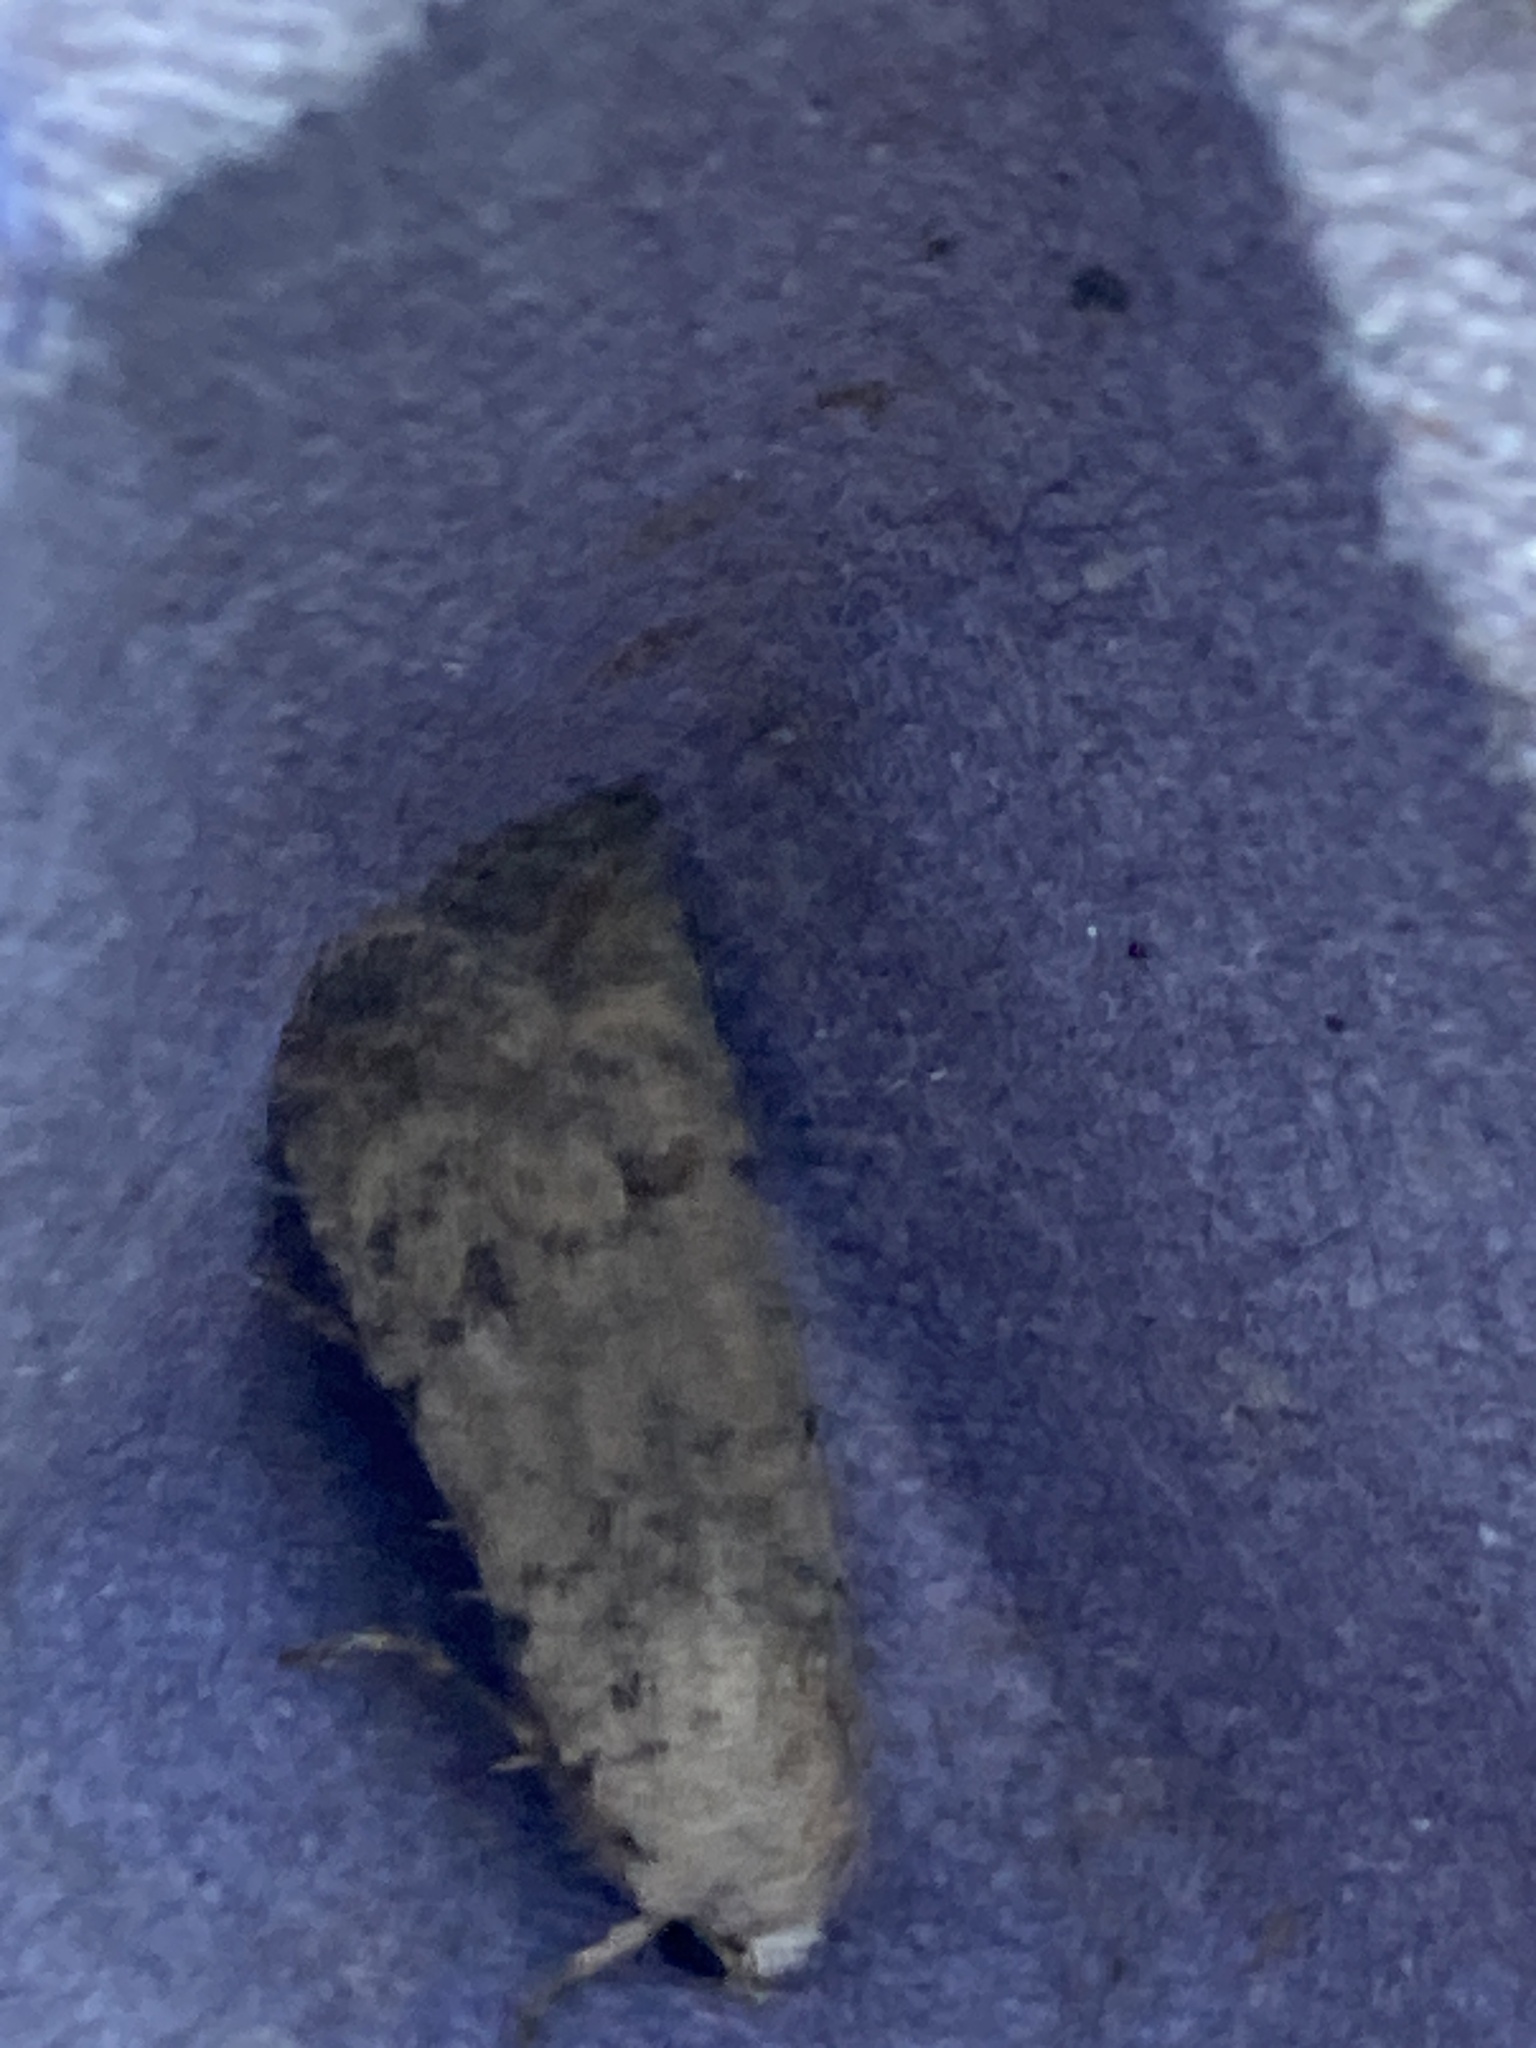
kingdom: Animalia
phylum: Arthropoda
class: Insecta
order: Lepidoptera
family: Noctuidae
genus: Caradrina
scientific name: Caradrina clavipalpis
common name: Pale mottled willow
